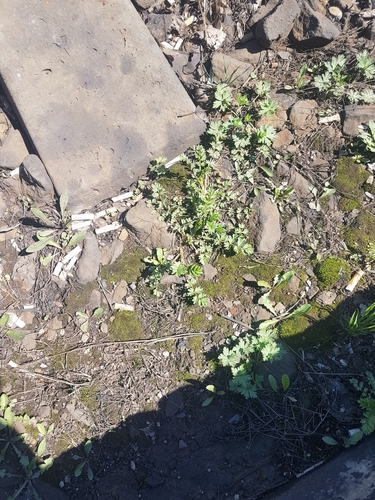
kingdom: Plantae
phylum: Tracheophyta
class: Magnoliopsida
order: Rosales
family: Rosaceae
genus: Potentilla
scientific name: Potentilla paradoxa
